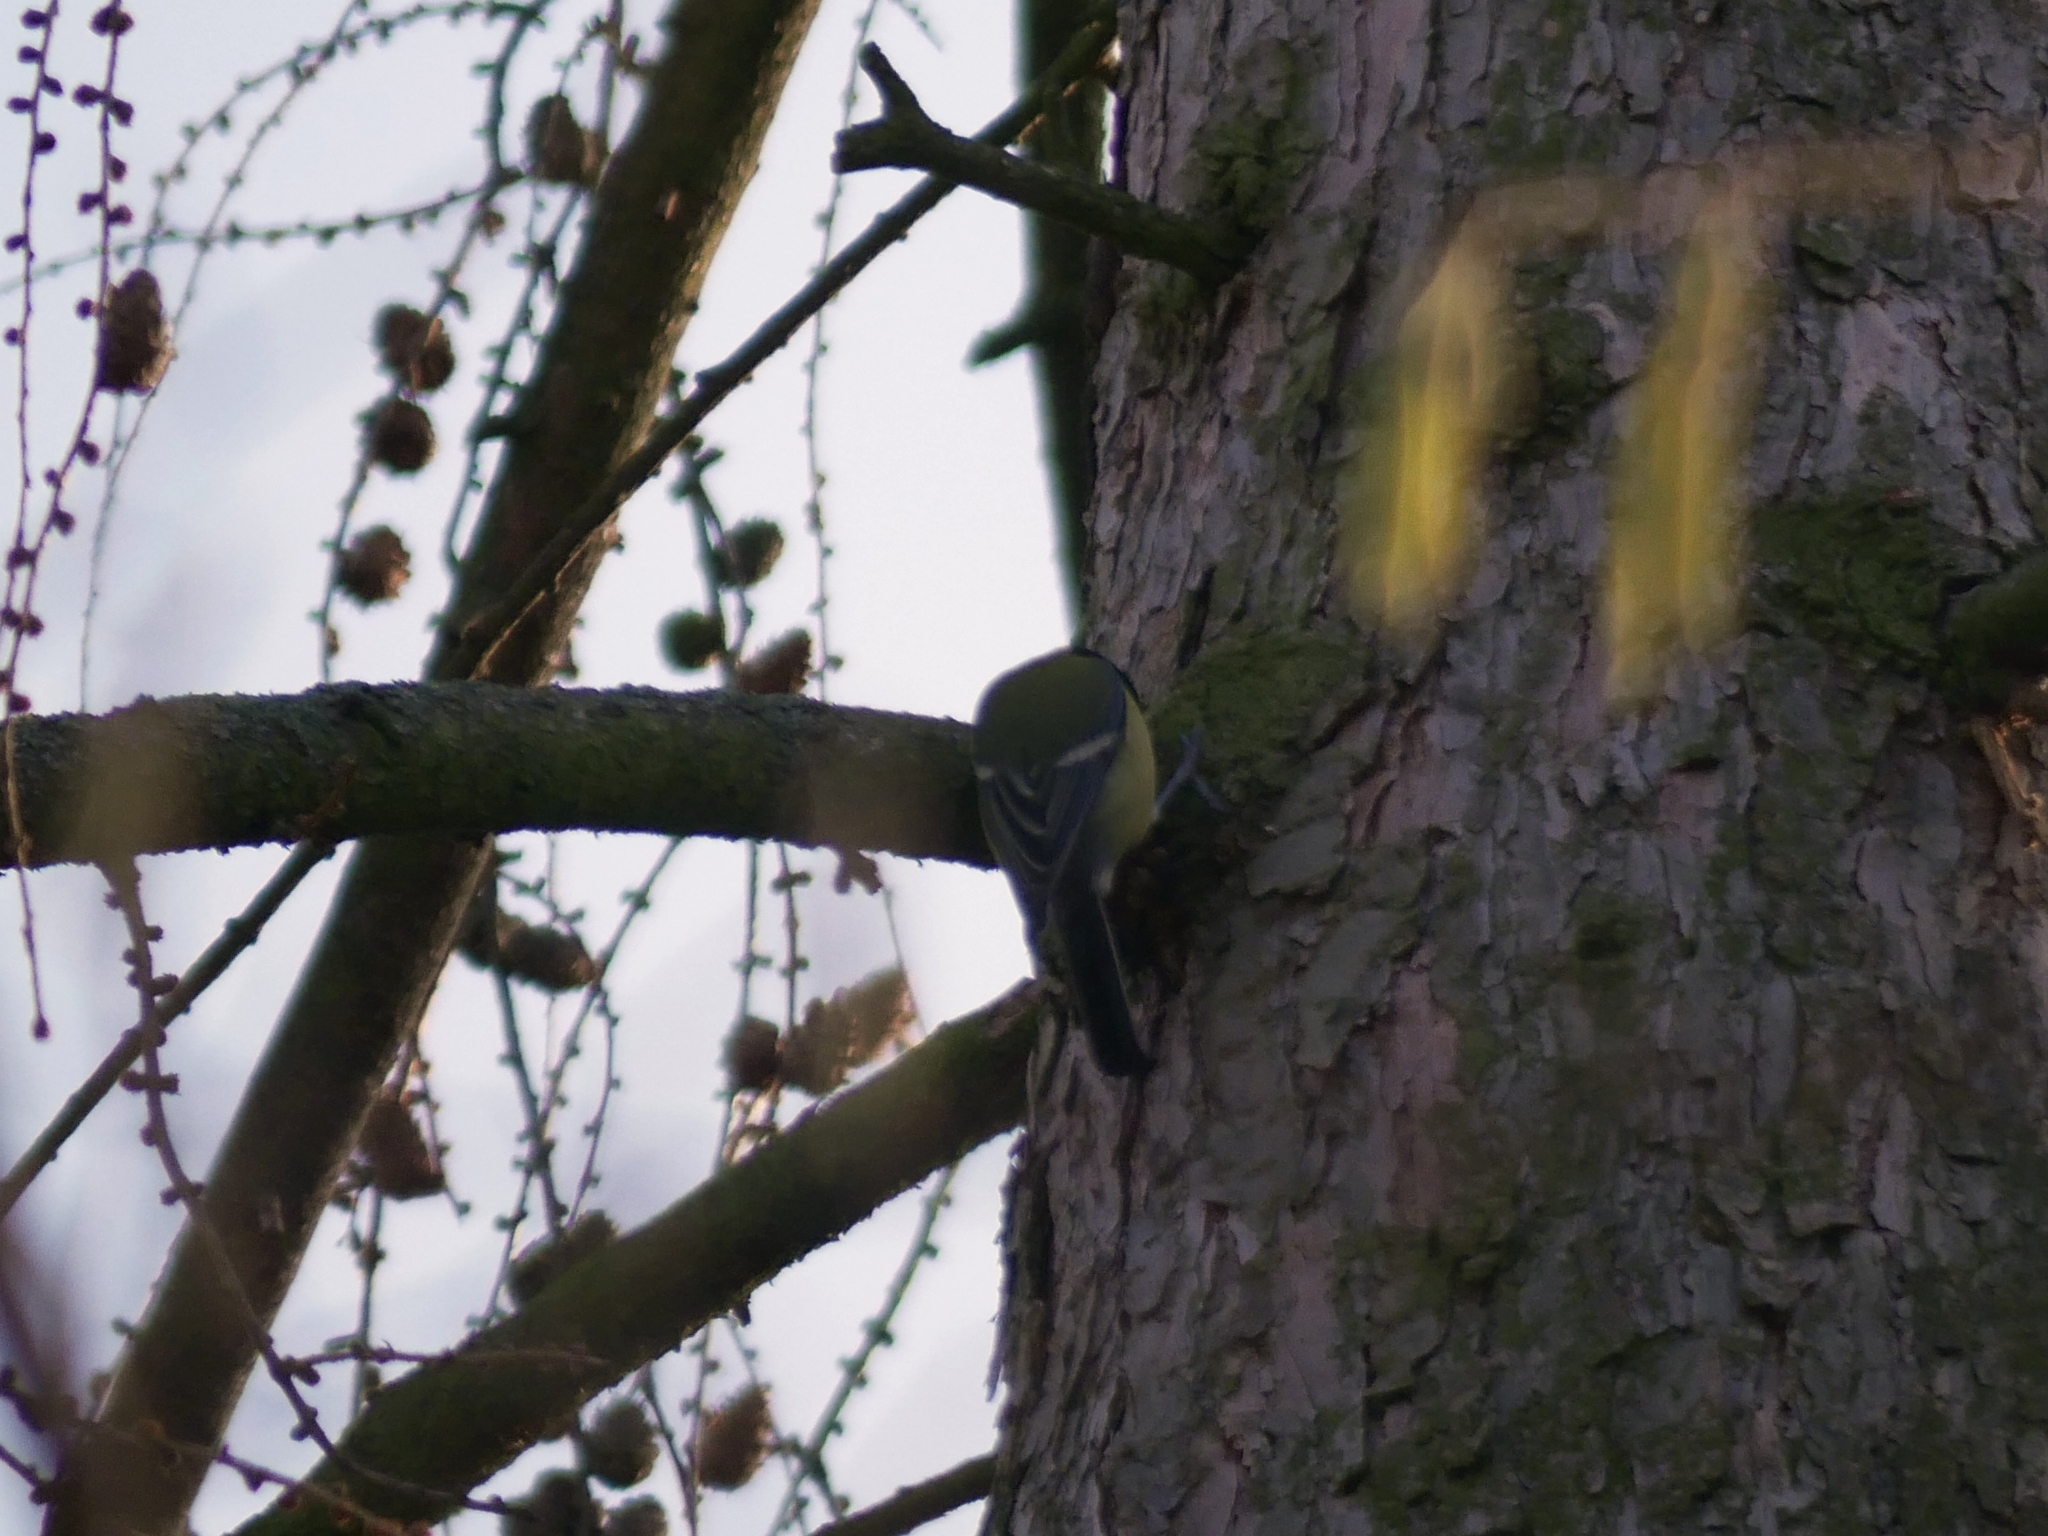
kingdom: Animalia
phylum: Chordata
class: Aves
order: Passeriformes
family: Paridae
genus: Parus
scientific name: Parus major
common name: Great tit
